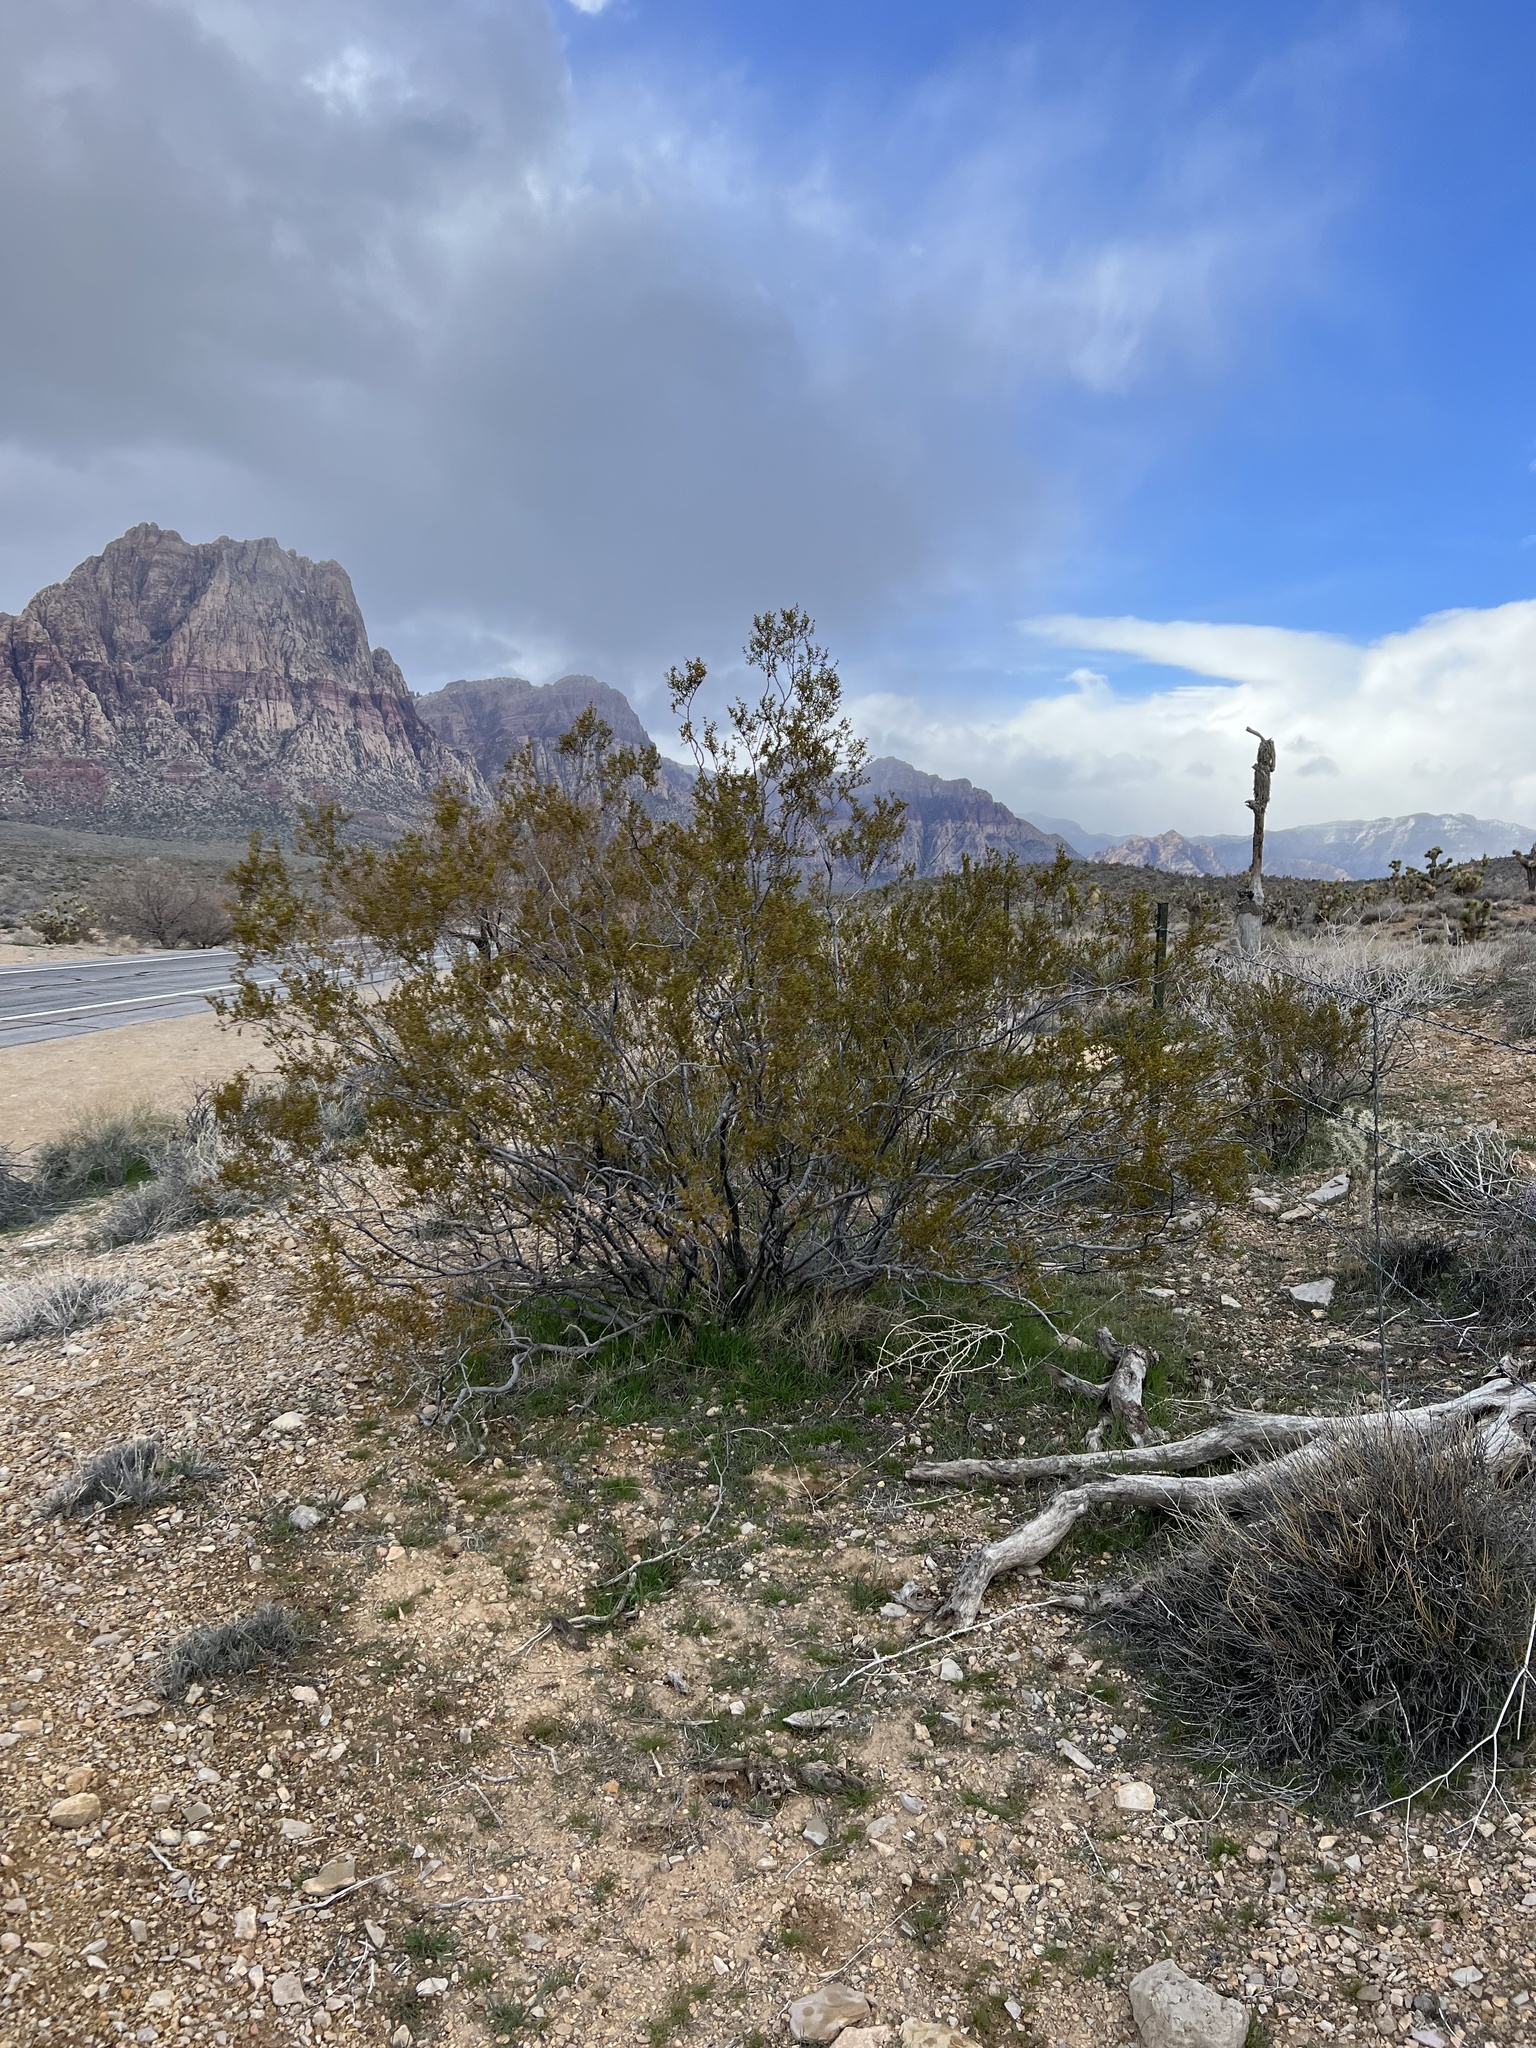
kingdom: Plantae
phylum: Tracheophyta
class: Magnoliopsida
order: Zygophyllales
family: Zygophyllaceae
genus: Larrea
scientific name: Larrea tridentata
